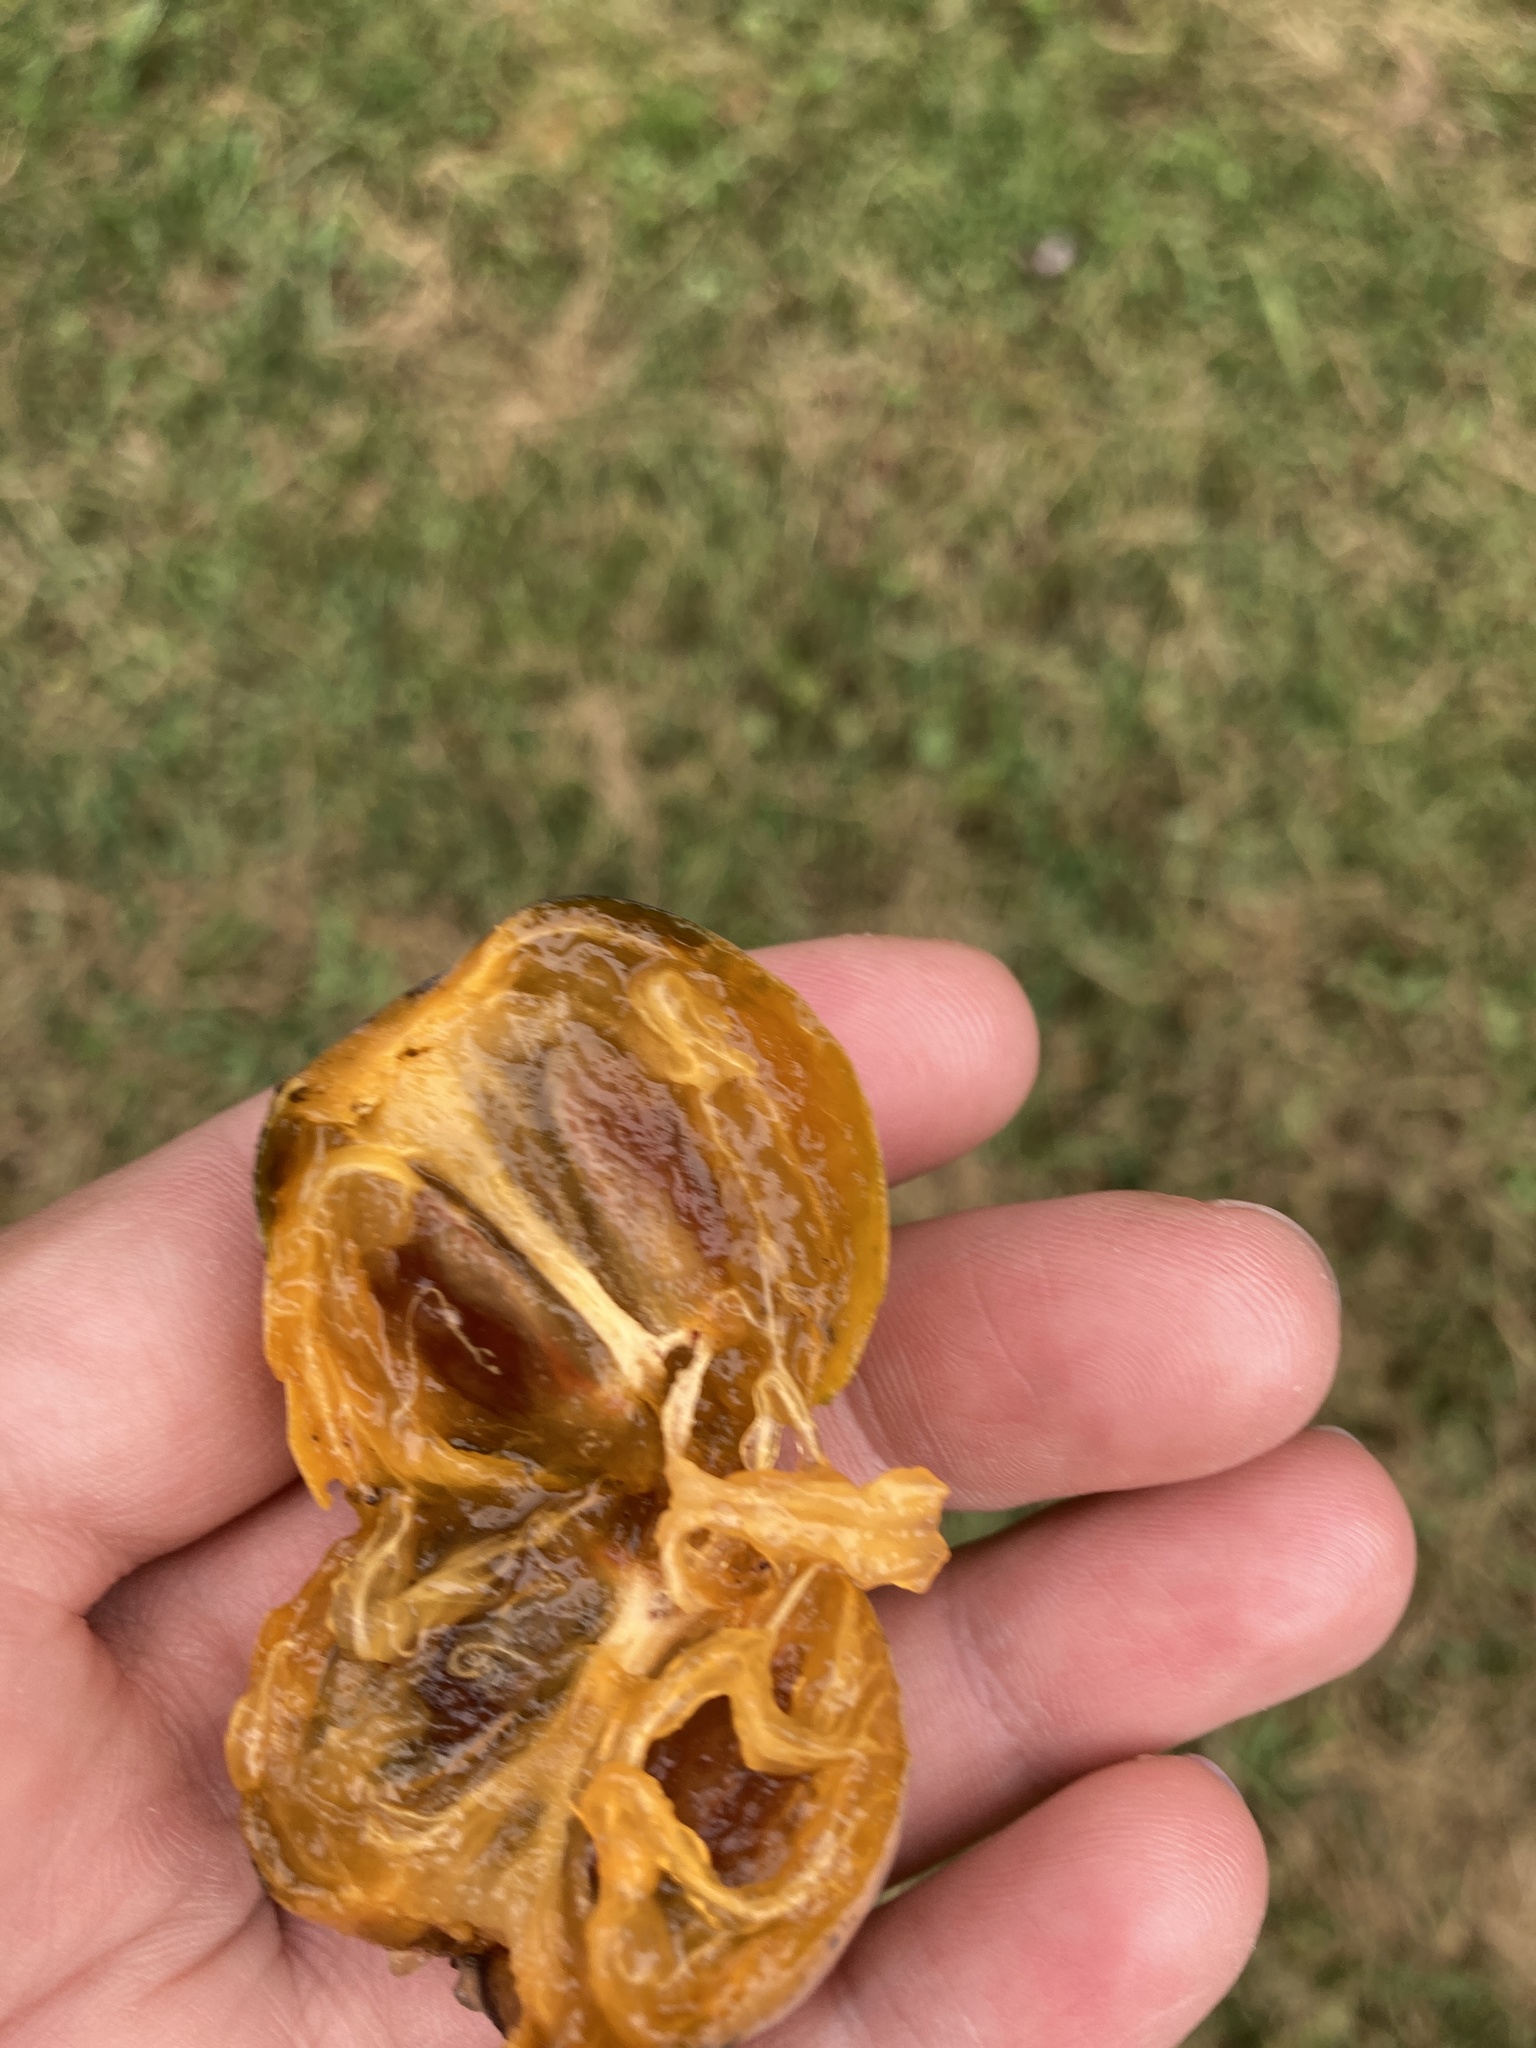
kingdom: Plantae
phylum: Tracheophyta
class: Magnoliopsida
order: Ericales
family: Ebenaceae
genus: Diospyros
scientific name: Diospyros virginiana
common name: Persimmon
